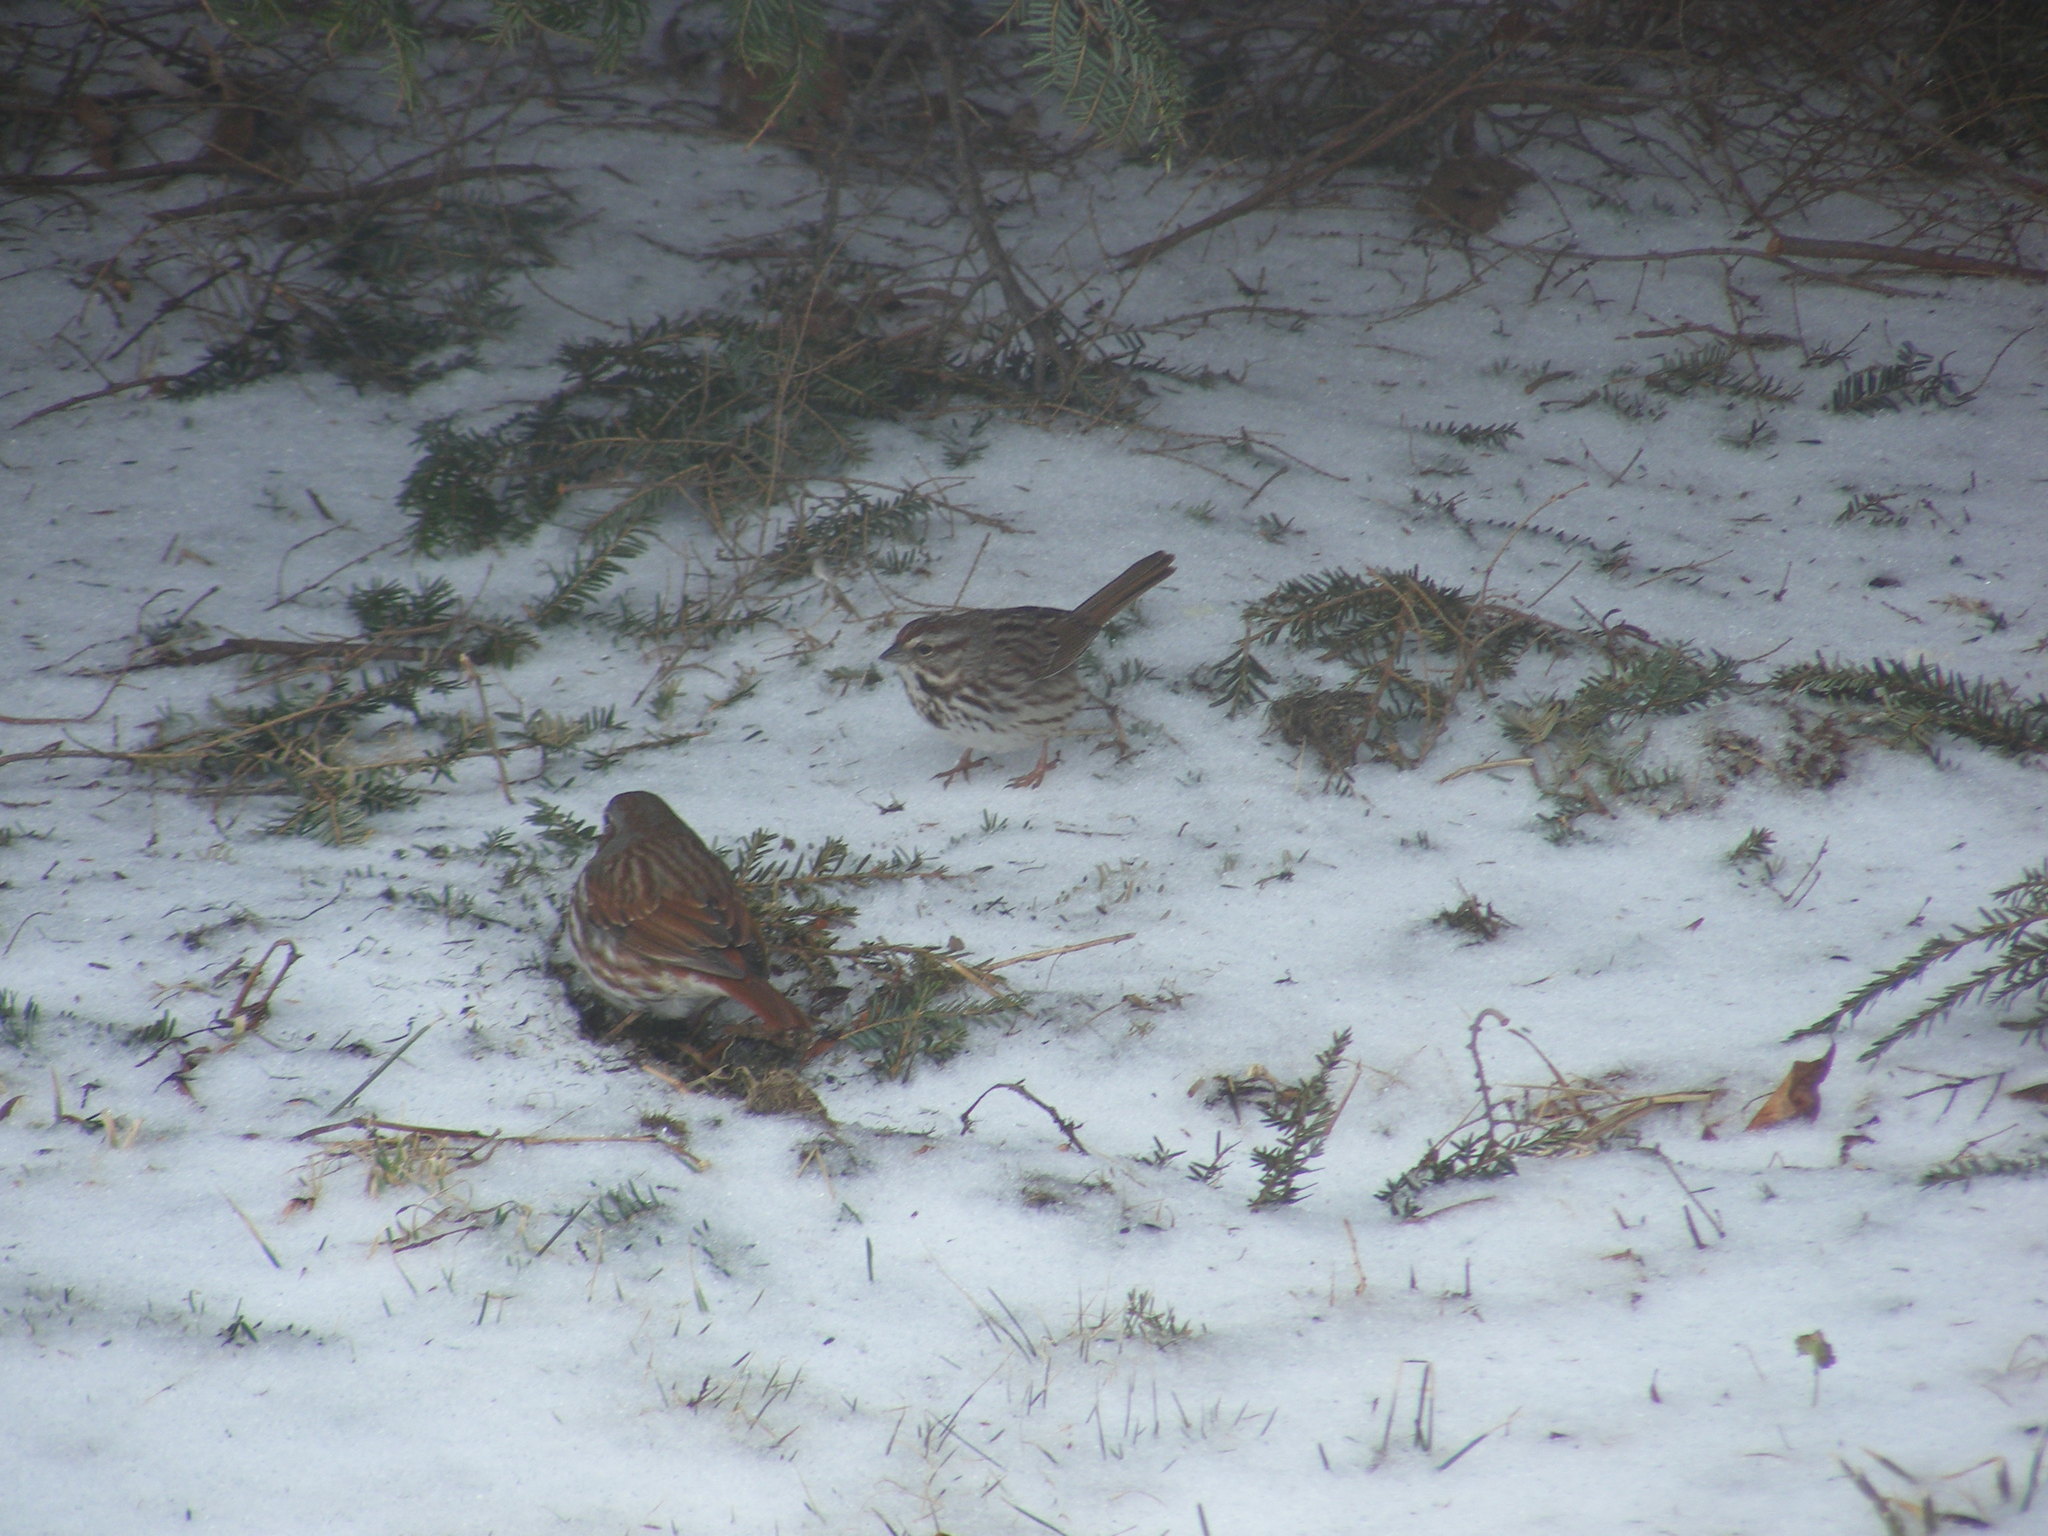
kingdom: Animalia
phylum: Chordata
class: Aves
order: Passeriformes
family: Passerellidae
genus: Passerella
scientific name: Passerella iliaca
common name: Fox sparrow
